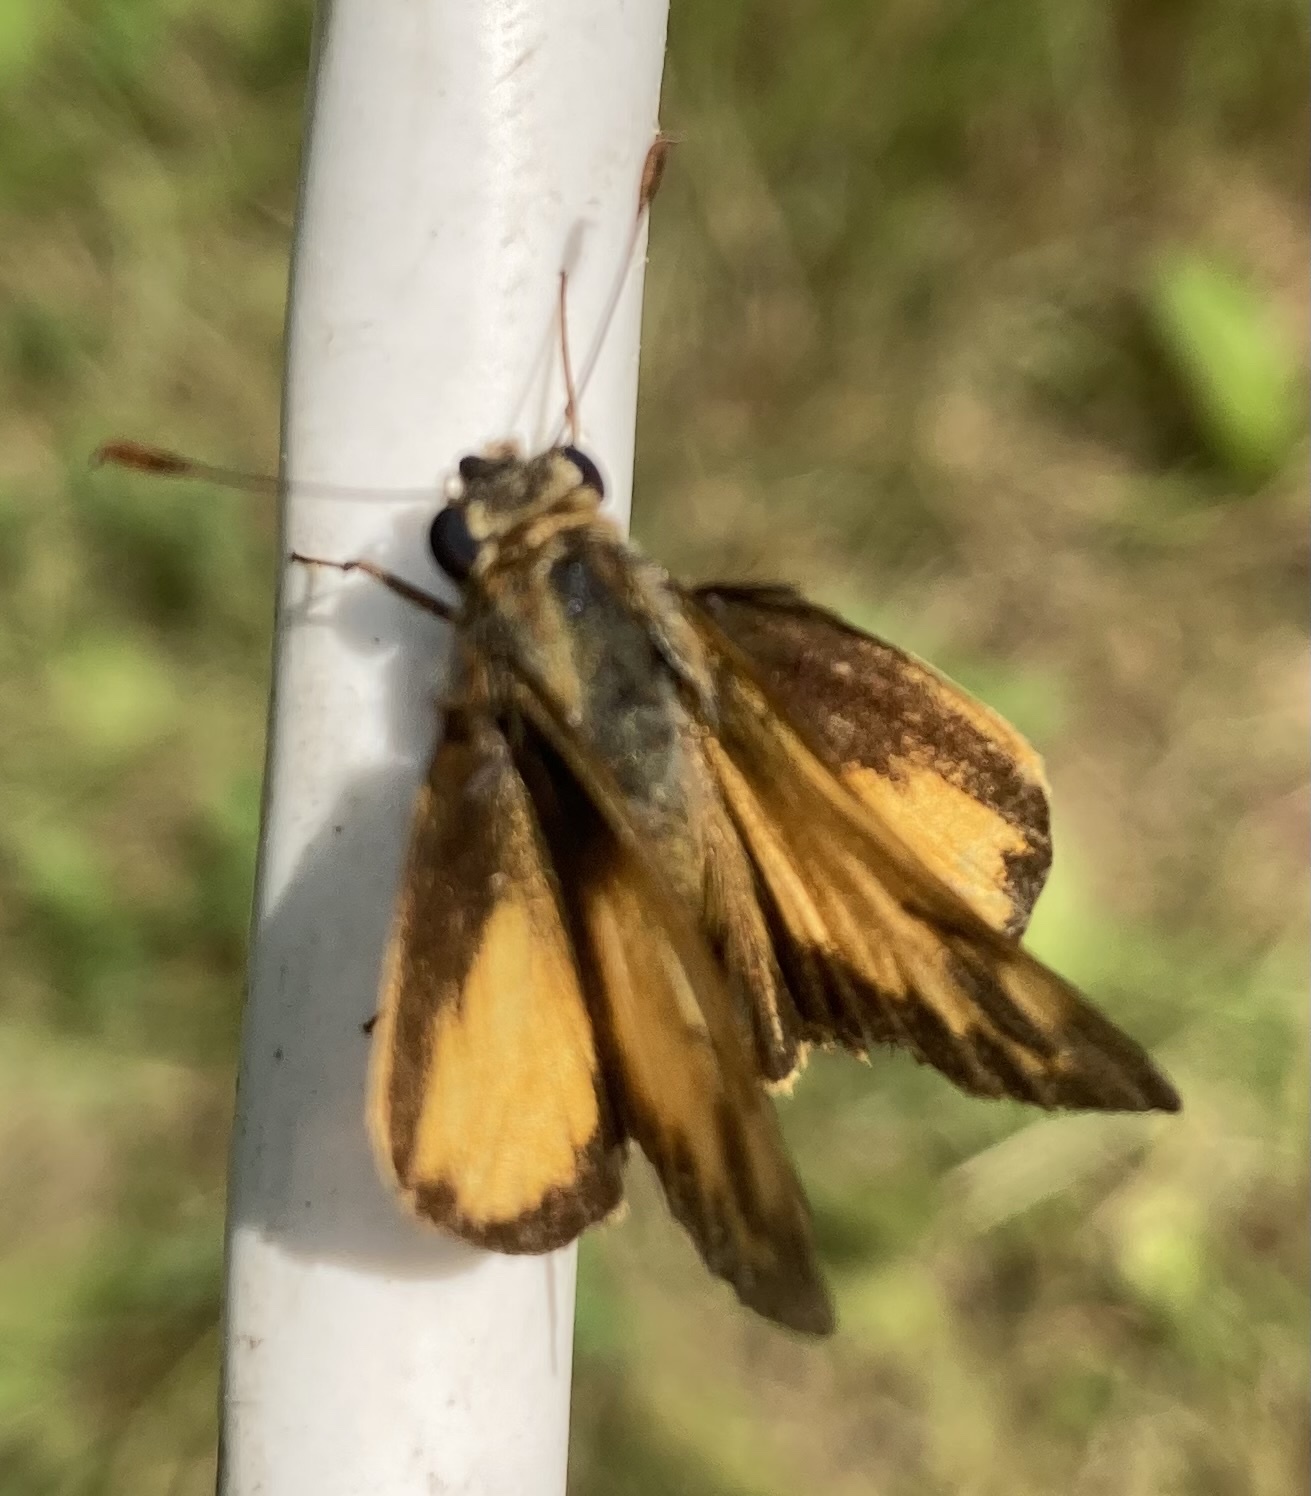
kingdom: Animalia
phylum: Arthropoda
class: Insecta
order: Lepidoptera
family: Hesperiidae
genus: Lon
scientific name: Lon zabulon
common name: Zabulon skipper
